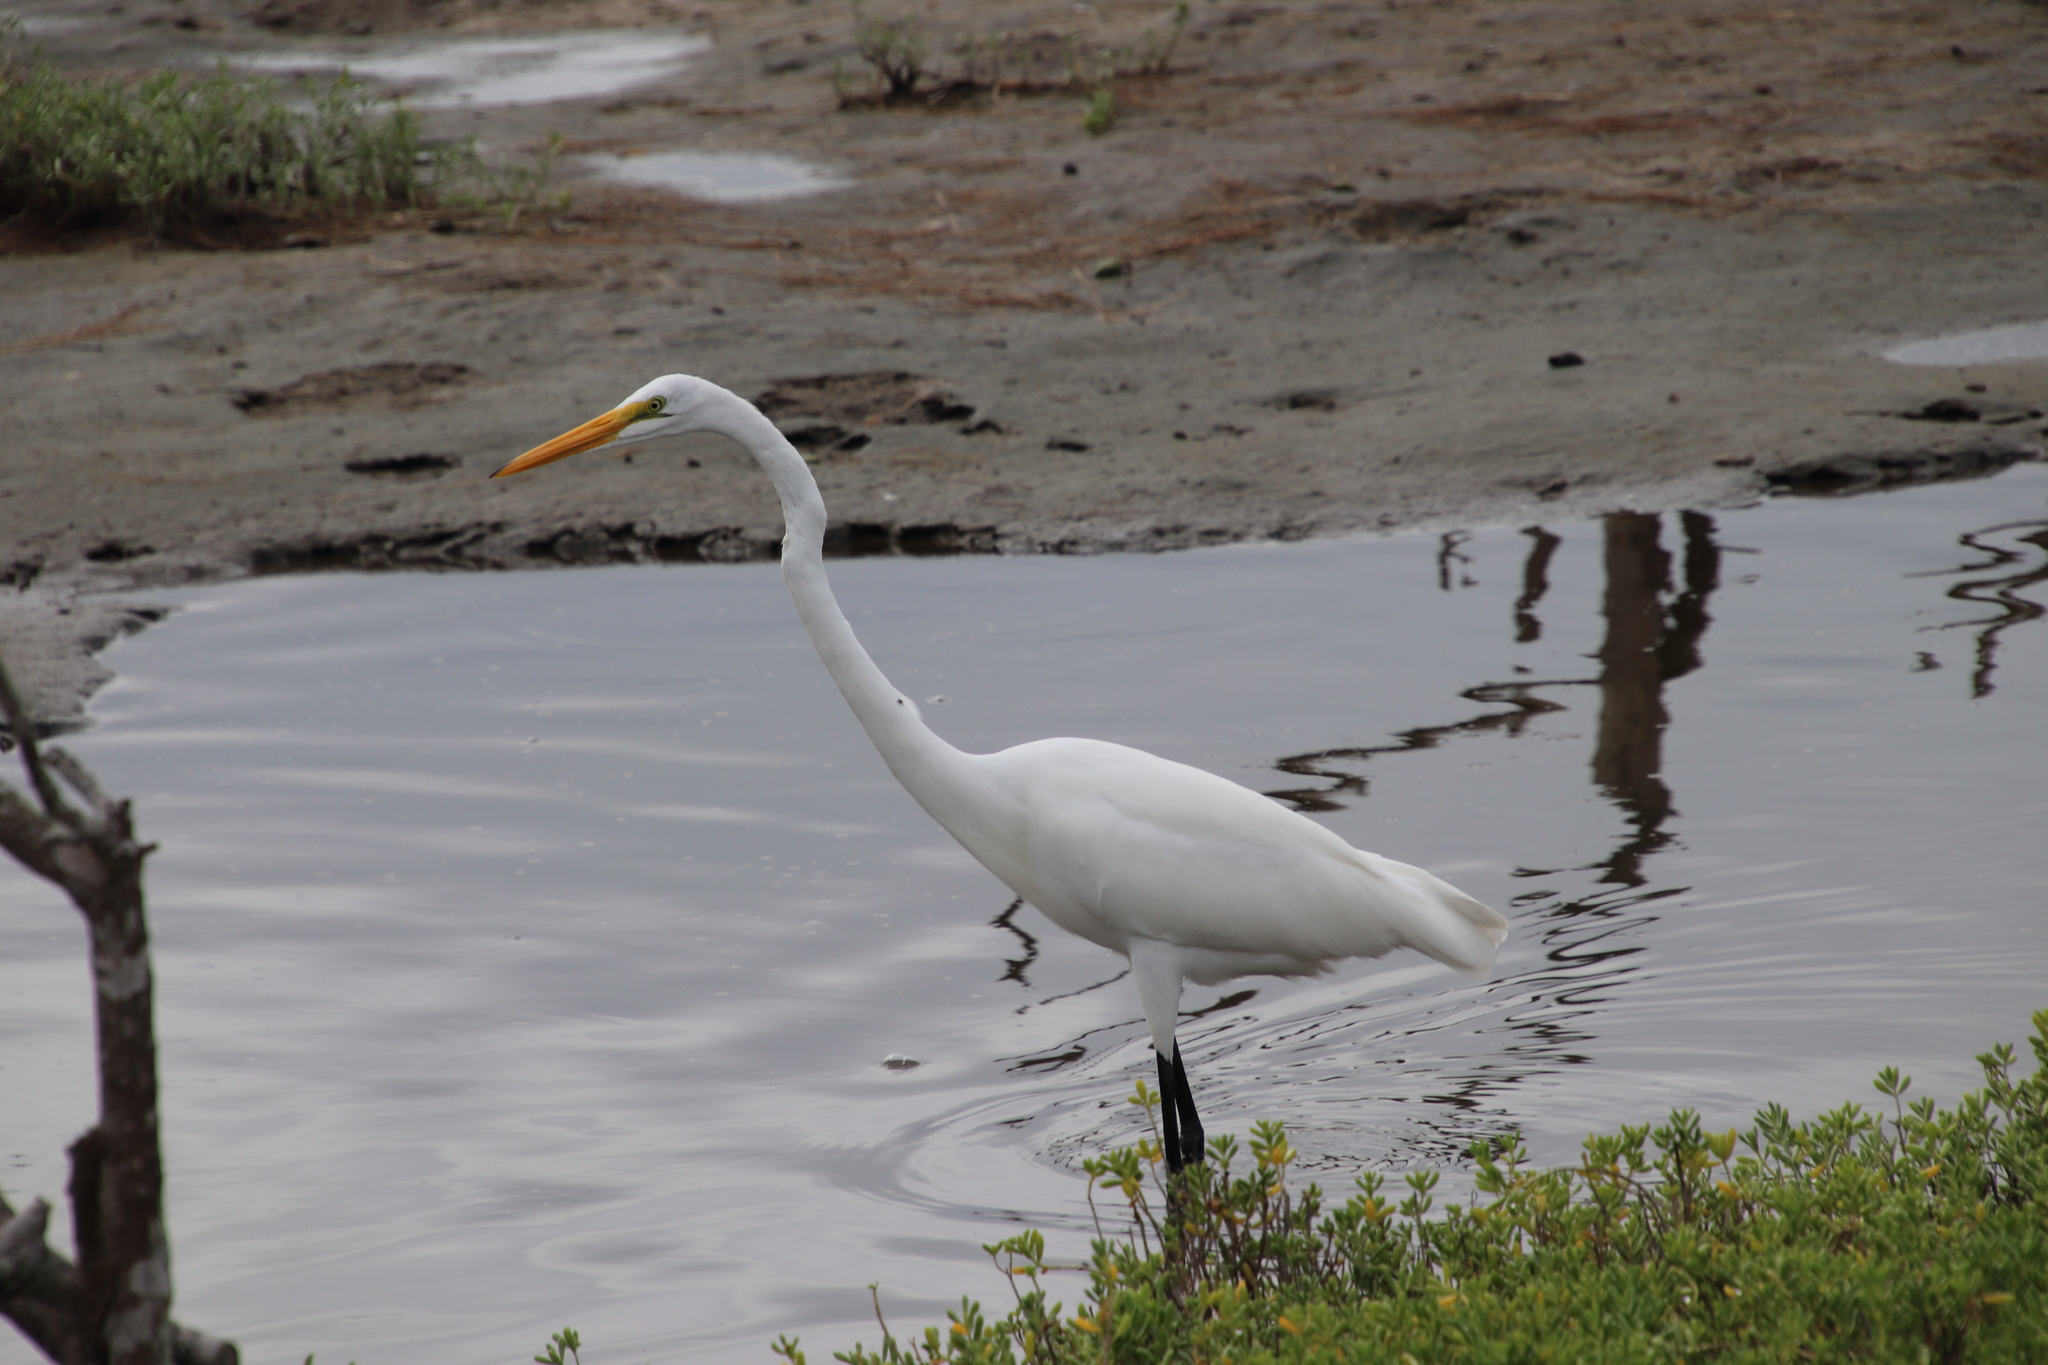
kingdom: Animalia
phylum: Chordata
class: Aves
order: Pelecaniformes
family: Ardeidae
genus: Ardea
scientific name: Ardea alba
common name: Great egret
